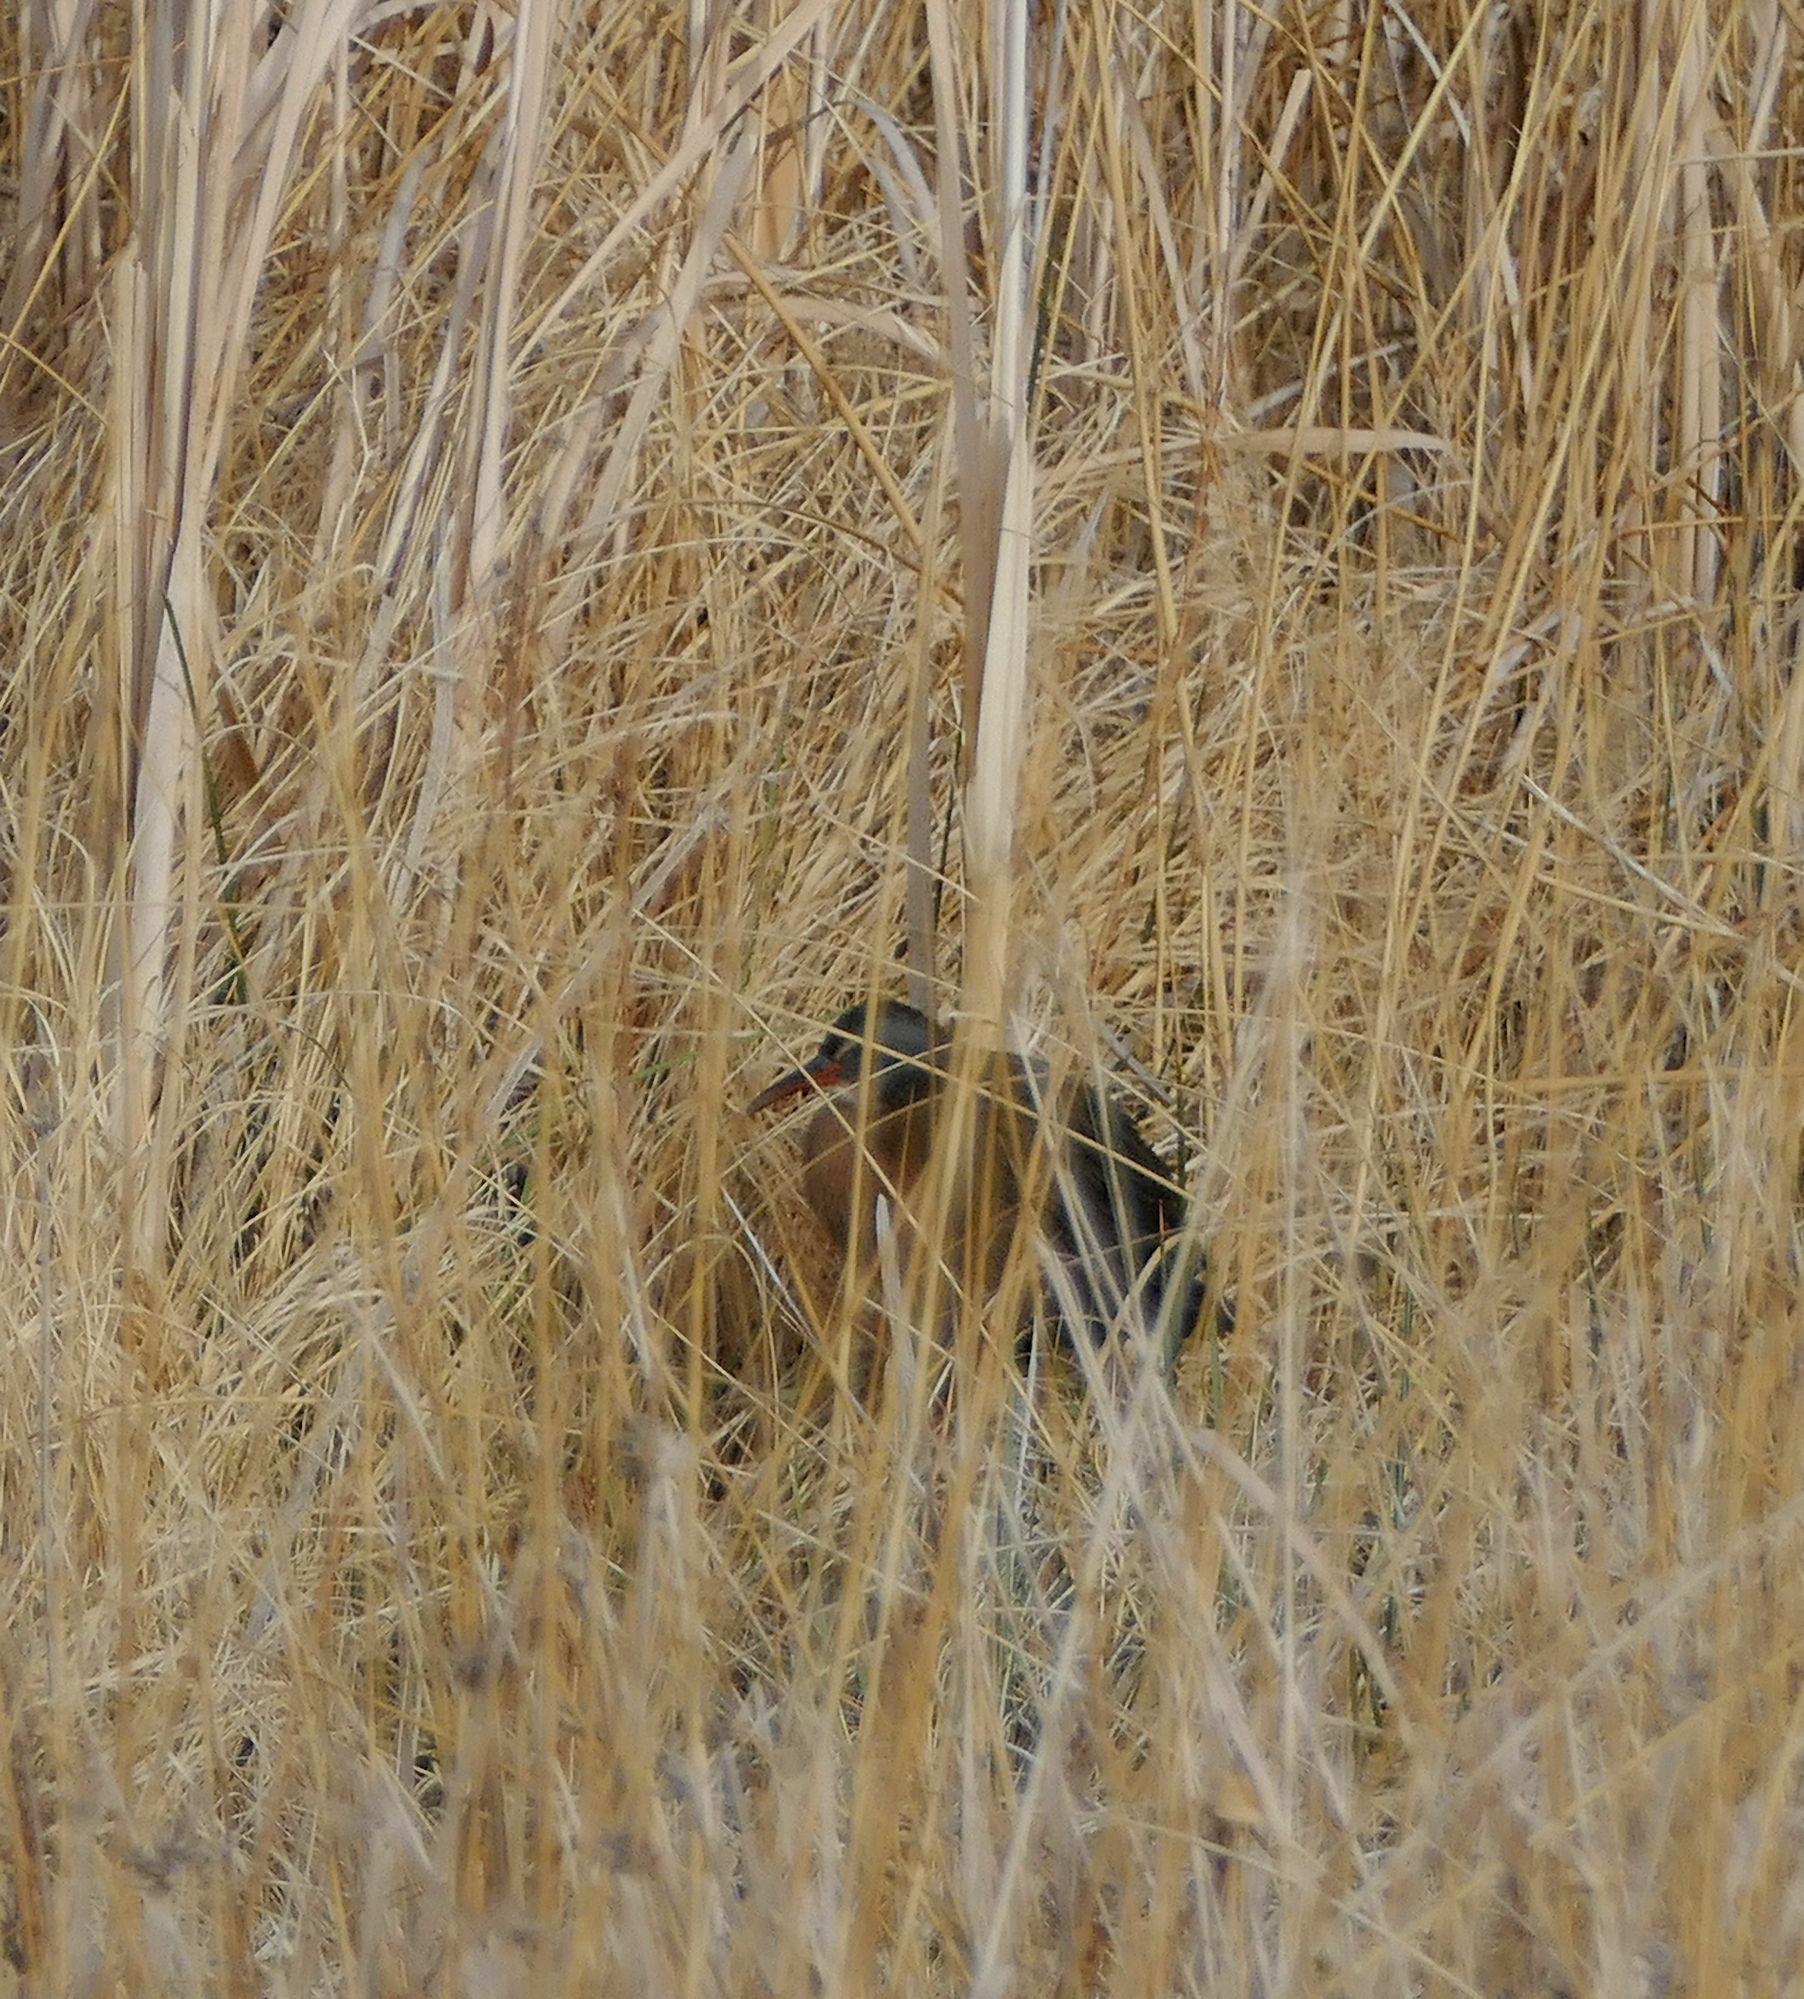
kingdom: Animalia
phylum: Chordata
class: Aves
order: Gruiformes
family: Rallidae
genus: Rallus
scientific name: Rallus limicola
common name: Virginia rail
